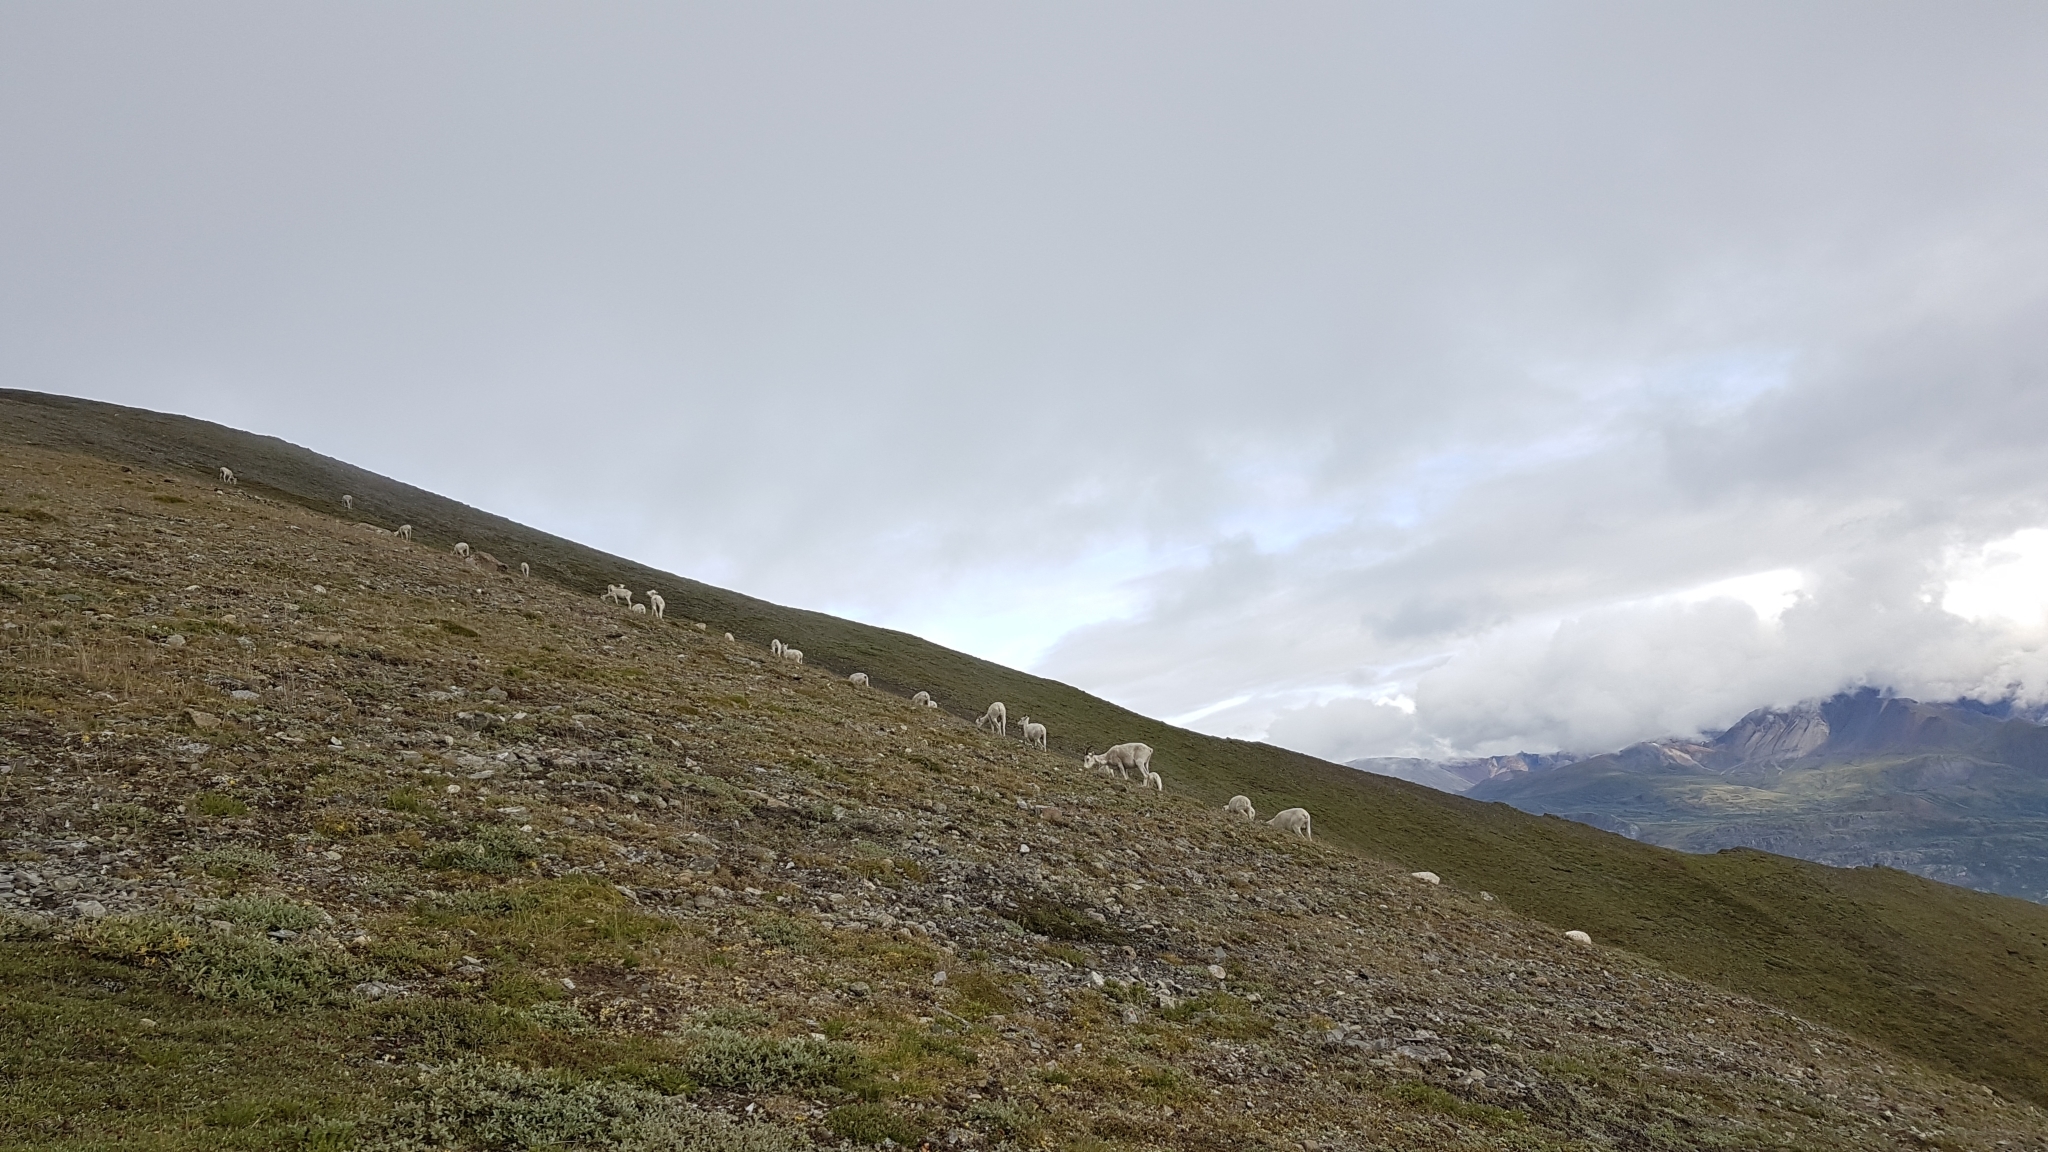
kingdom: Animalia
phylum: Chordata
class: Mammalia
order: Artiodactyla
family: Bovidae
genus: Ovis
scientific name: Ovis dalli
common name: Dall's sheep
